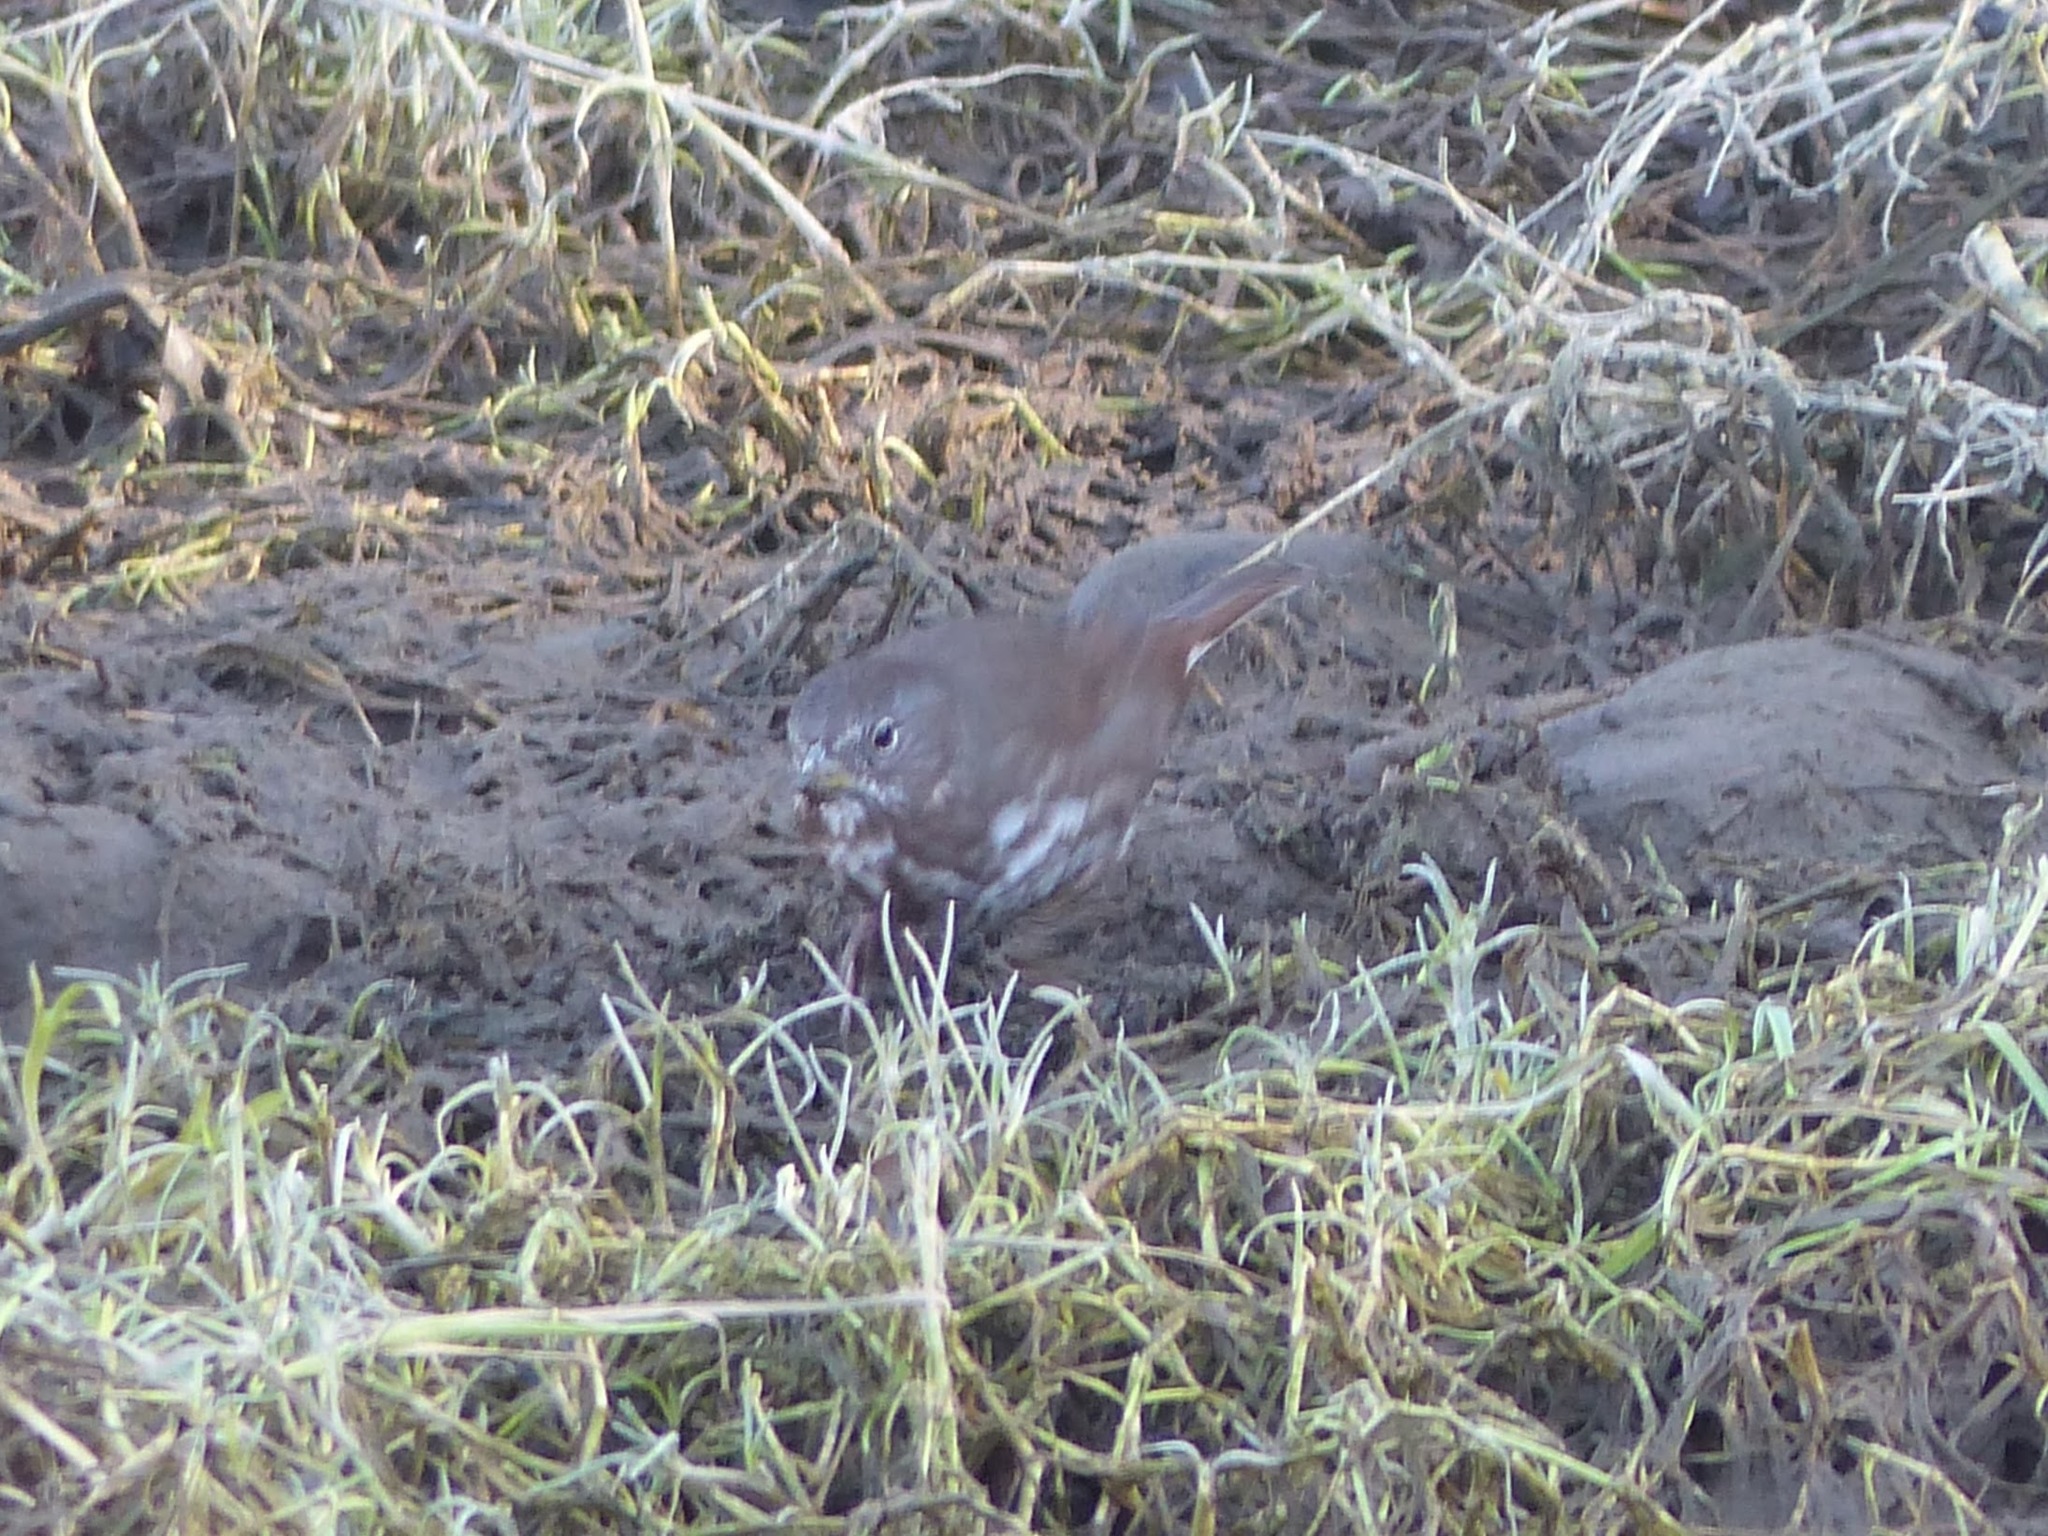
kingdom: Animalia
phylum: Chordata
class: Aves
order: Passeriformes
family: Passerellidae
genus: Passerella
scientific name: Passerella iliaca
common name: Fox sparrow
